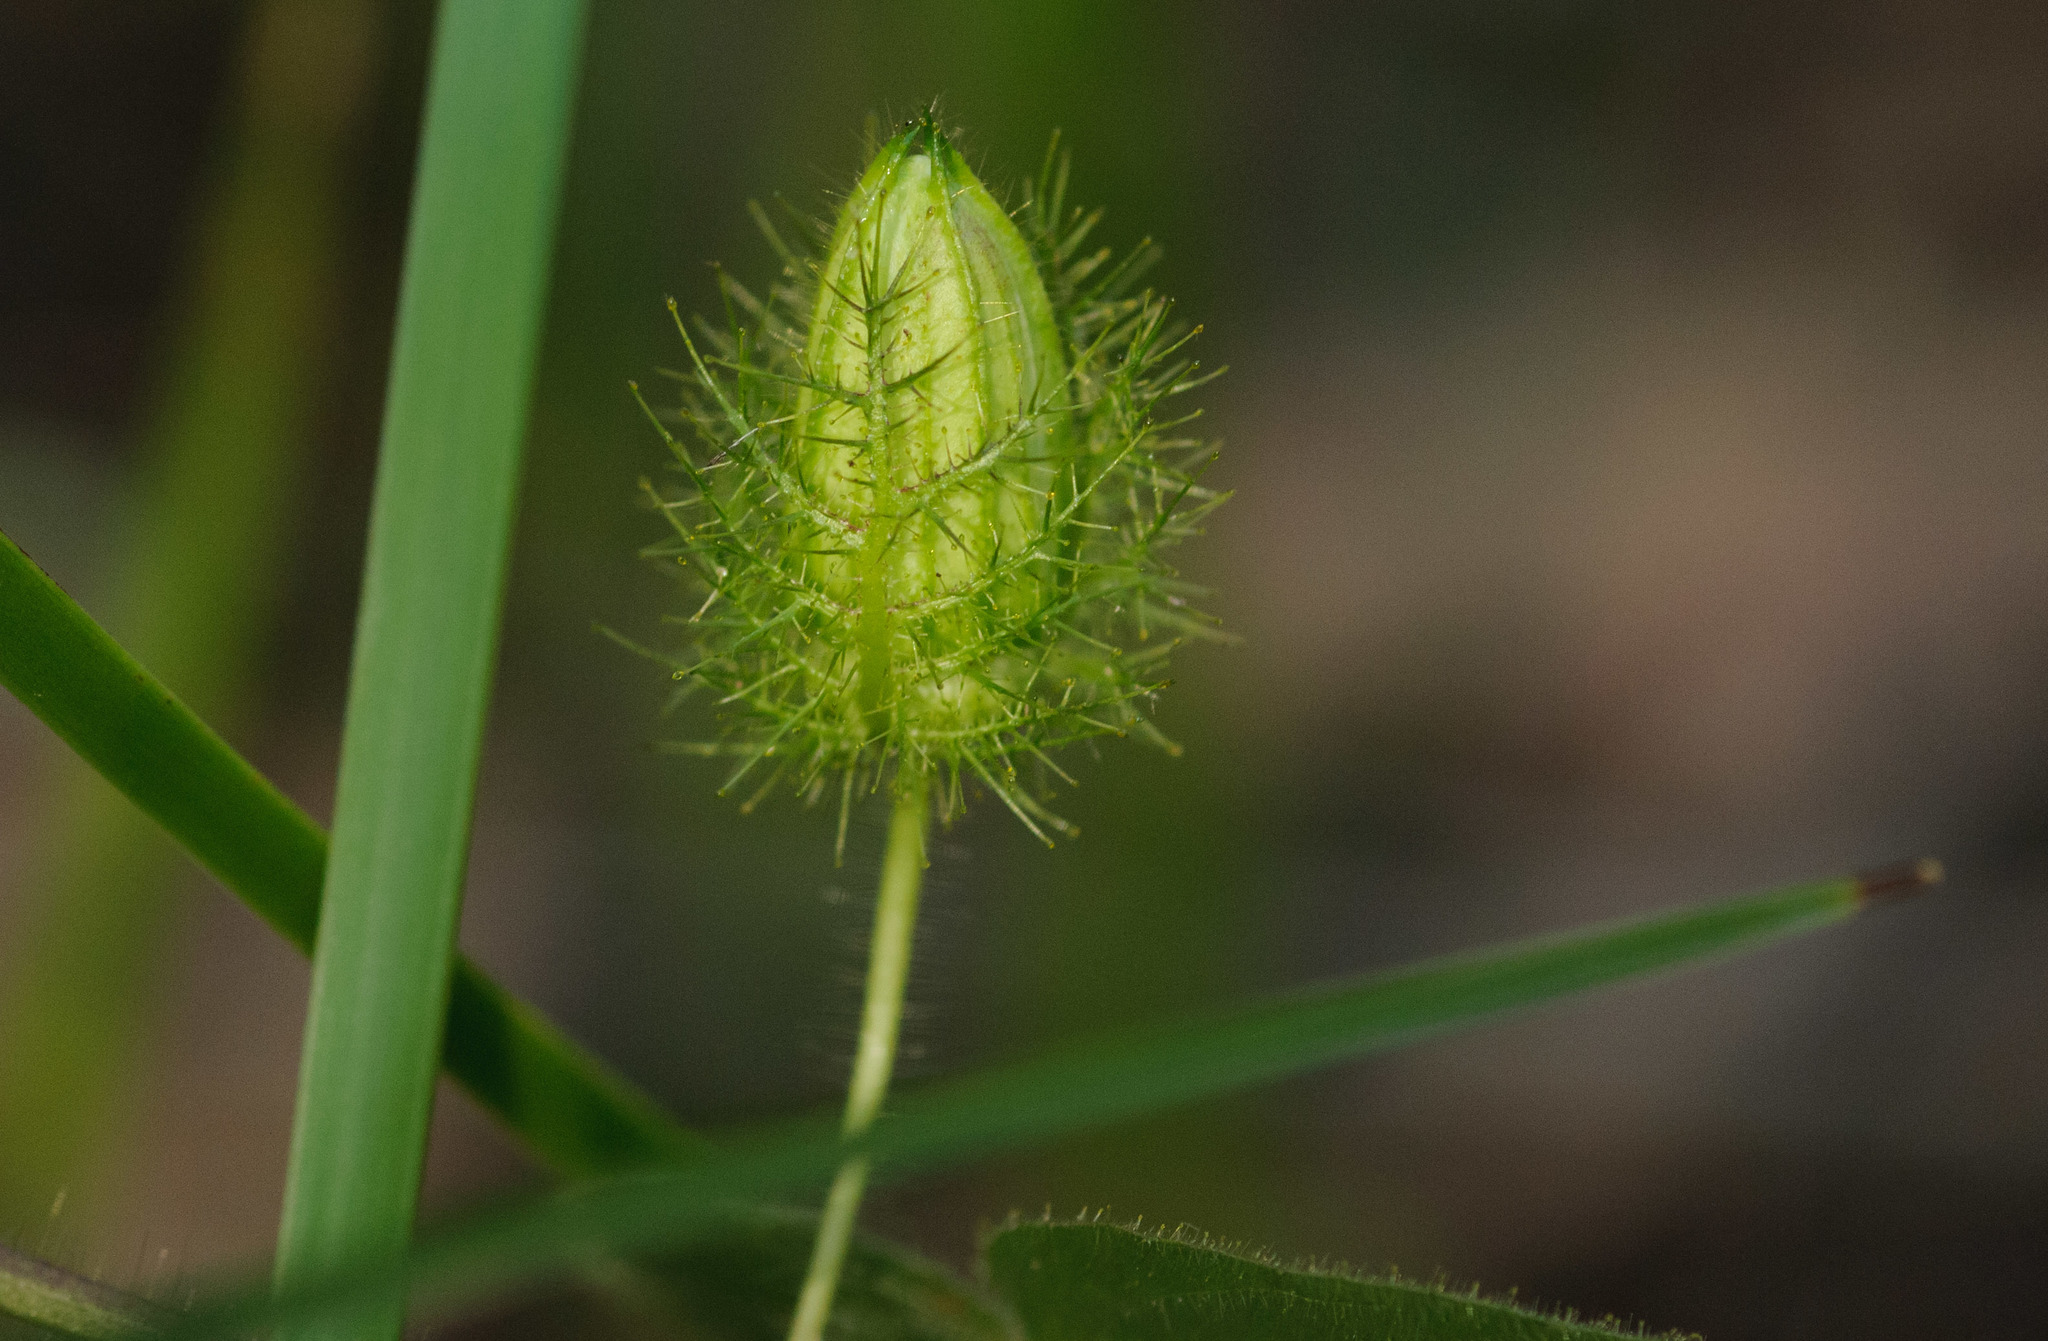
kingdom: Plantae
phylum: Tracheophyta
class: Magnoliopsida
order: Malpighiales
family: Passifloraceae
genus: Passiflora
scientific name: Passiflora foetida
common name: Fetid passionflower
